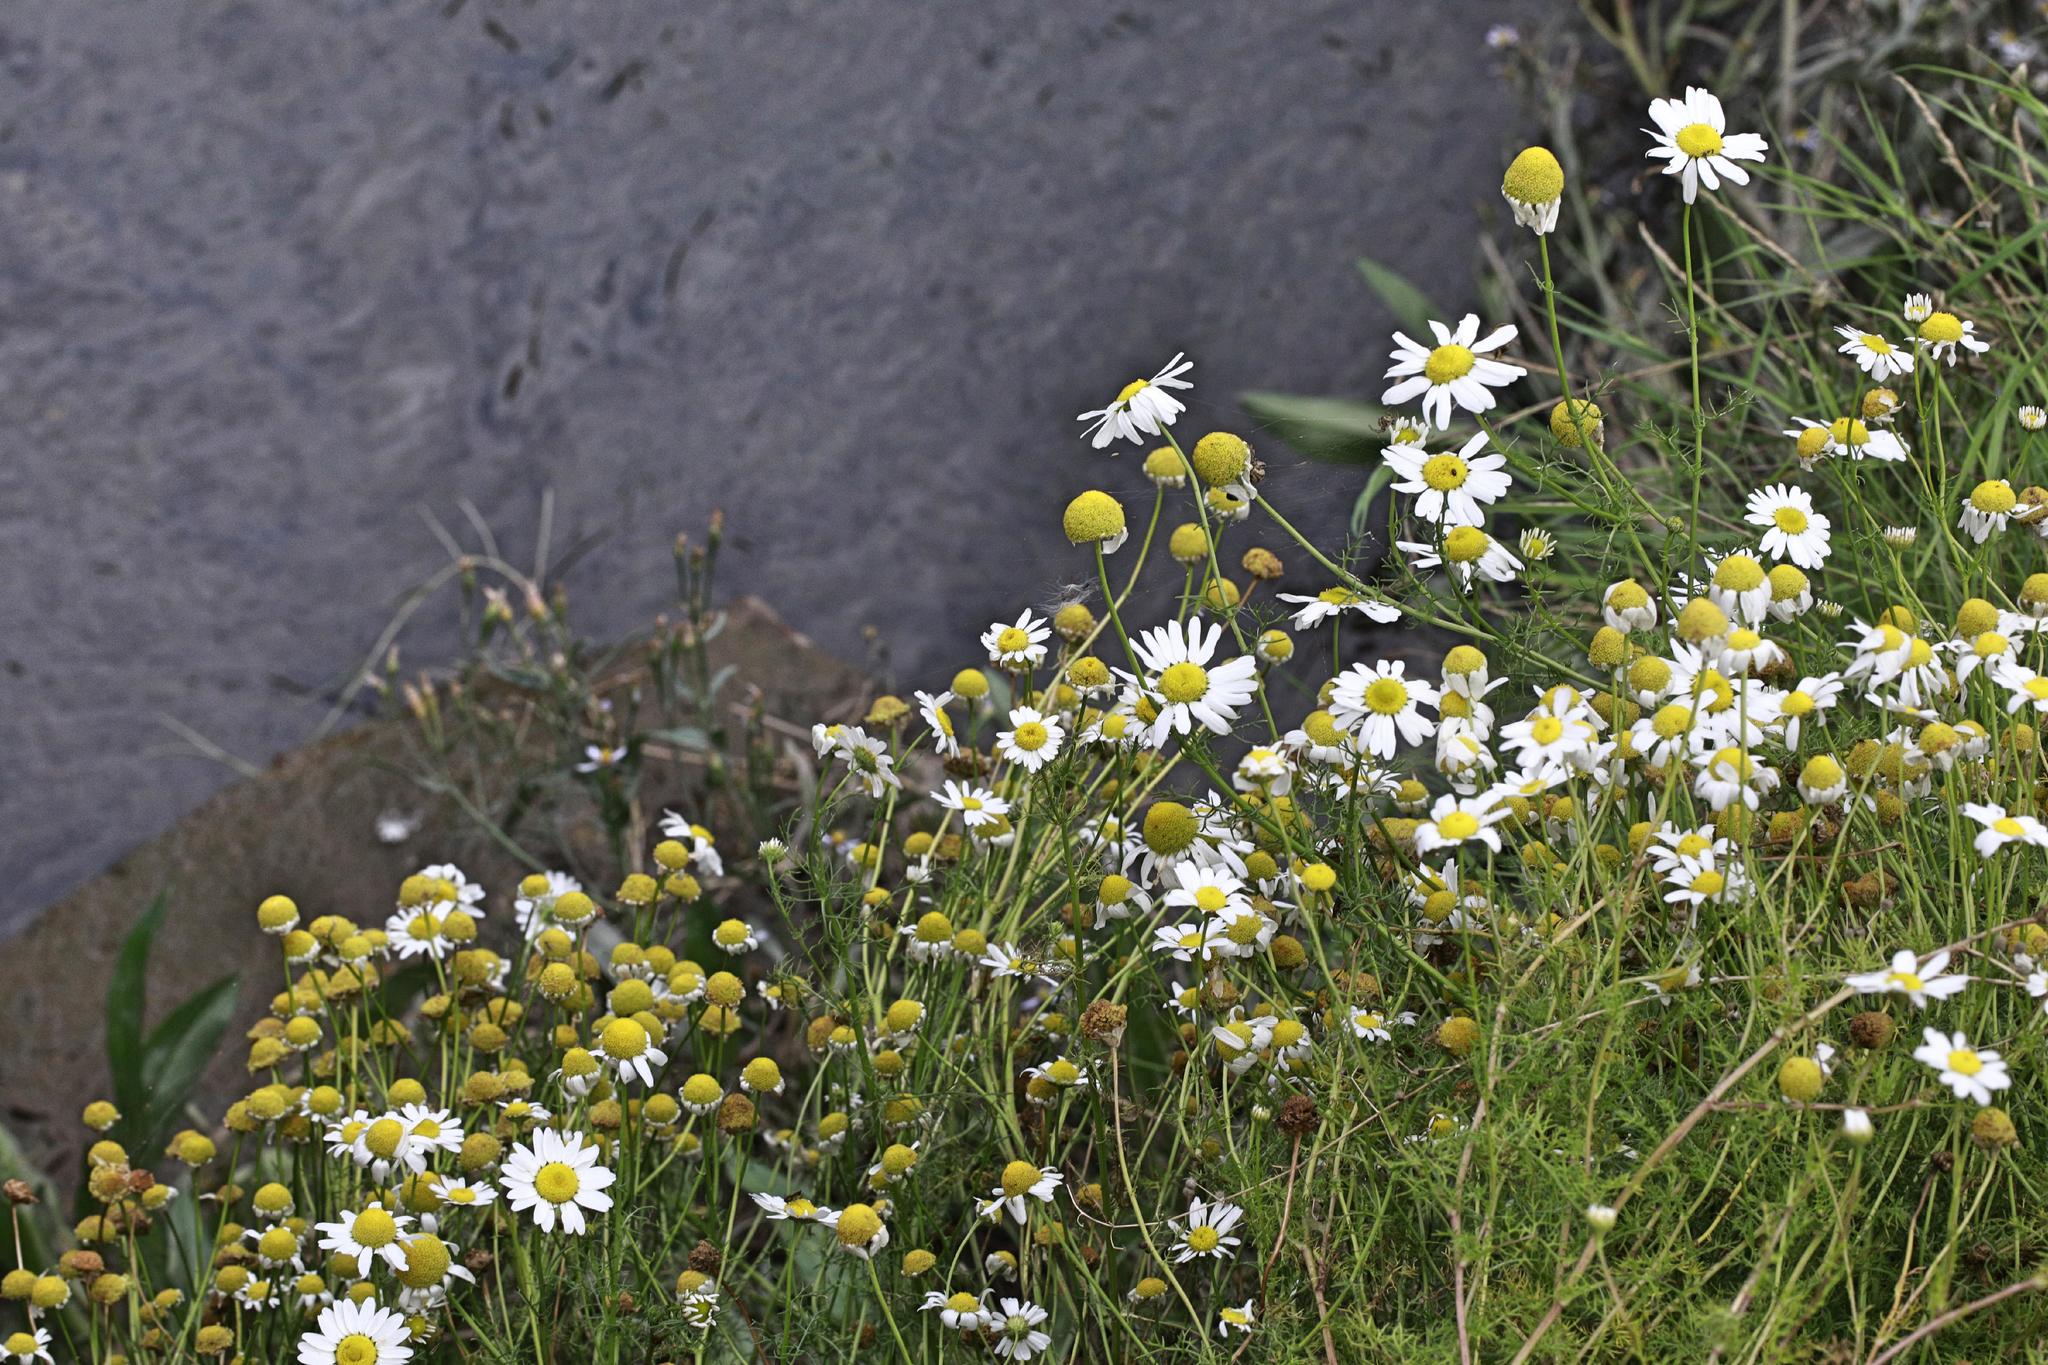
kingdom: Plantae
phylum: Tracheophyta
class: Magnoliopsida
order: Asterales
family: Asteraceae
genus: Tripleurospermum
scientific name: Tripleurospermum inodorum
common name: Scentless mayweed
